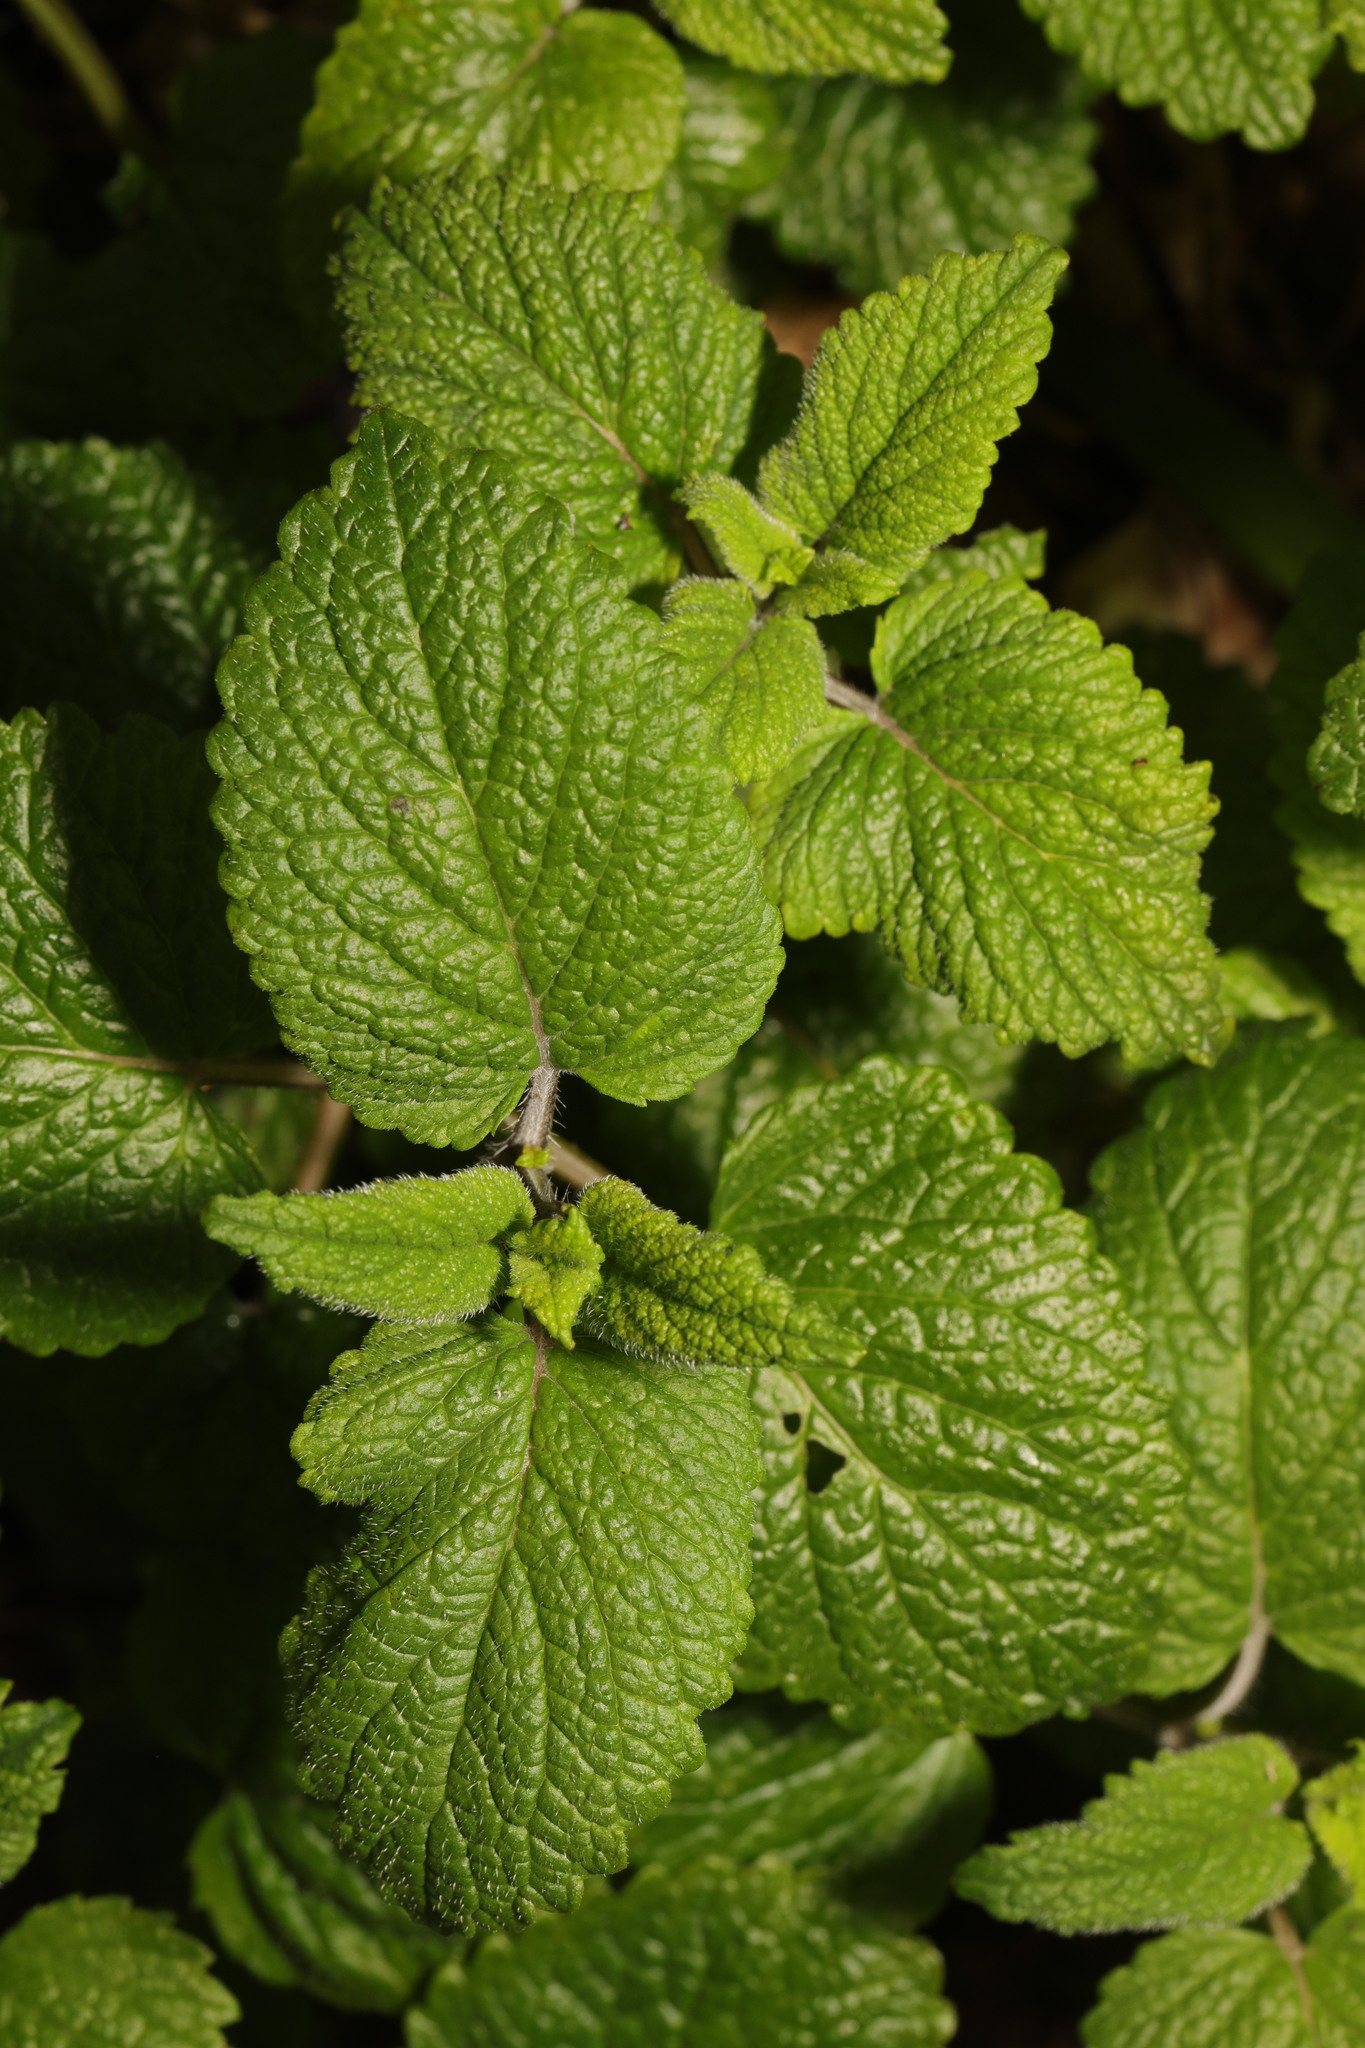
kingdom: Plantae
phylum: Tracheophyta
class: Magnoliopsida
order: Lamiales
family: Lamiaceae
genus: Melissa
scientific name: Melissa officinalis
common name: Balm
